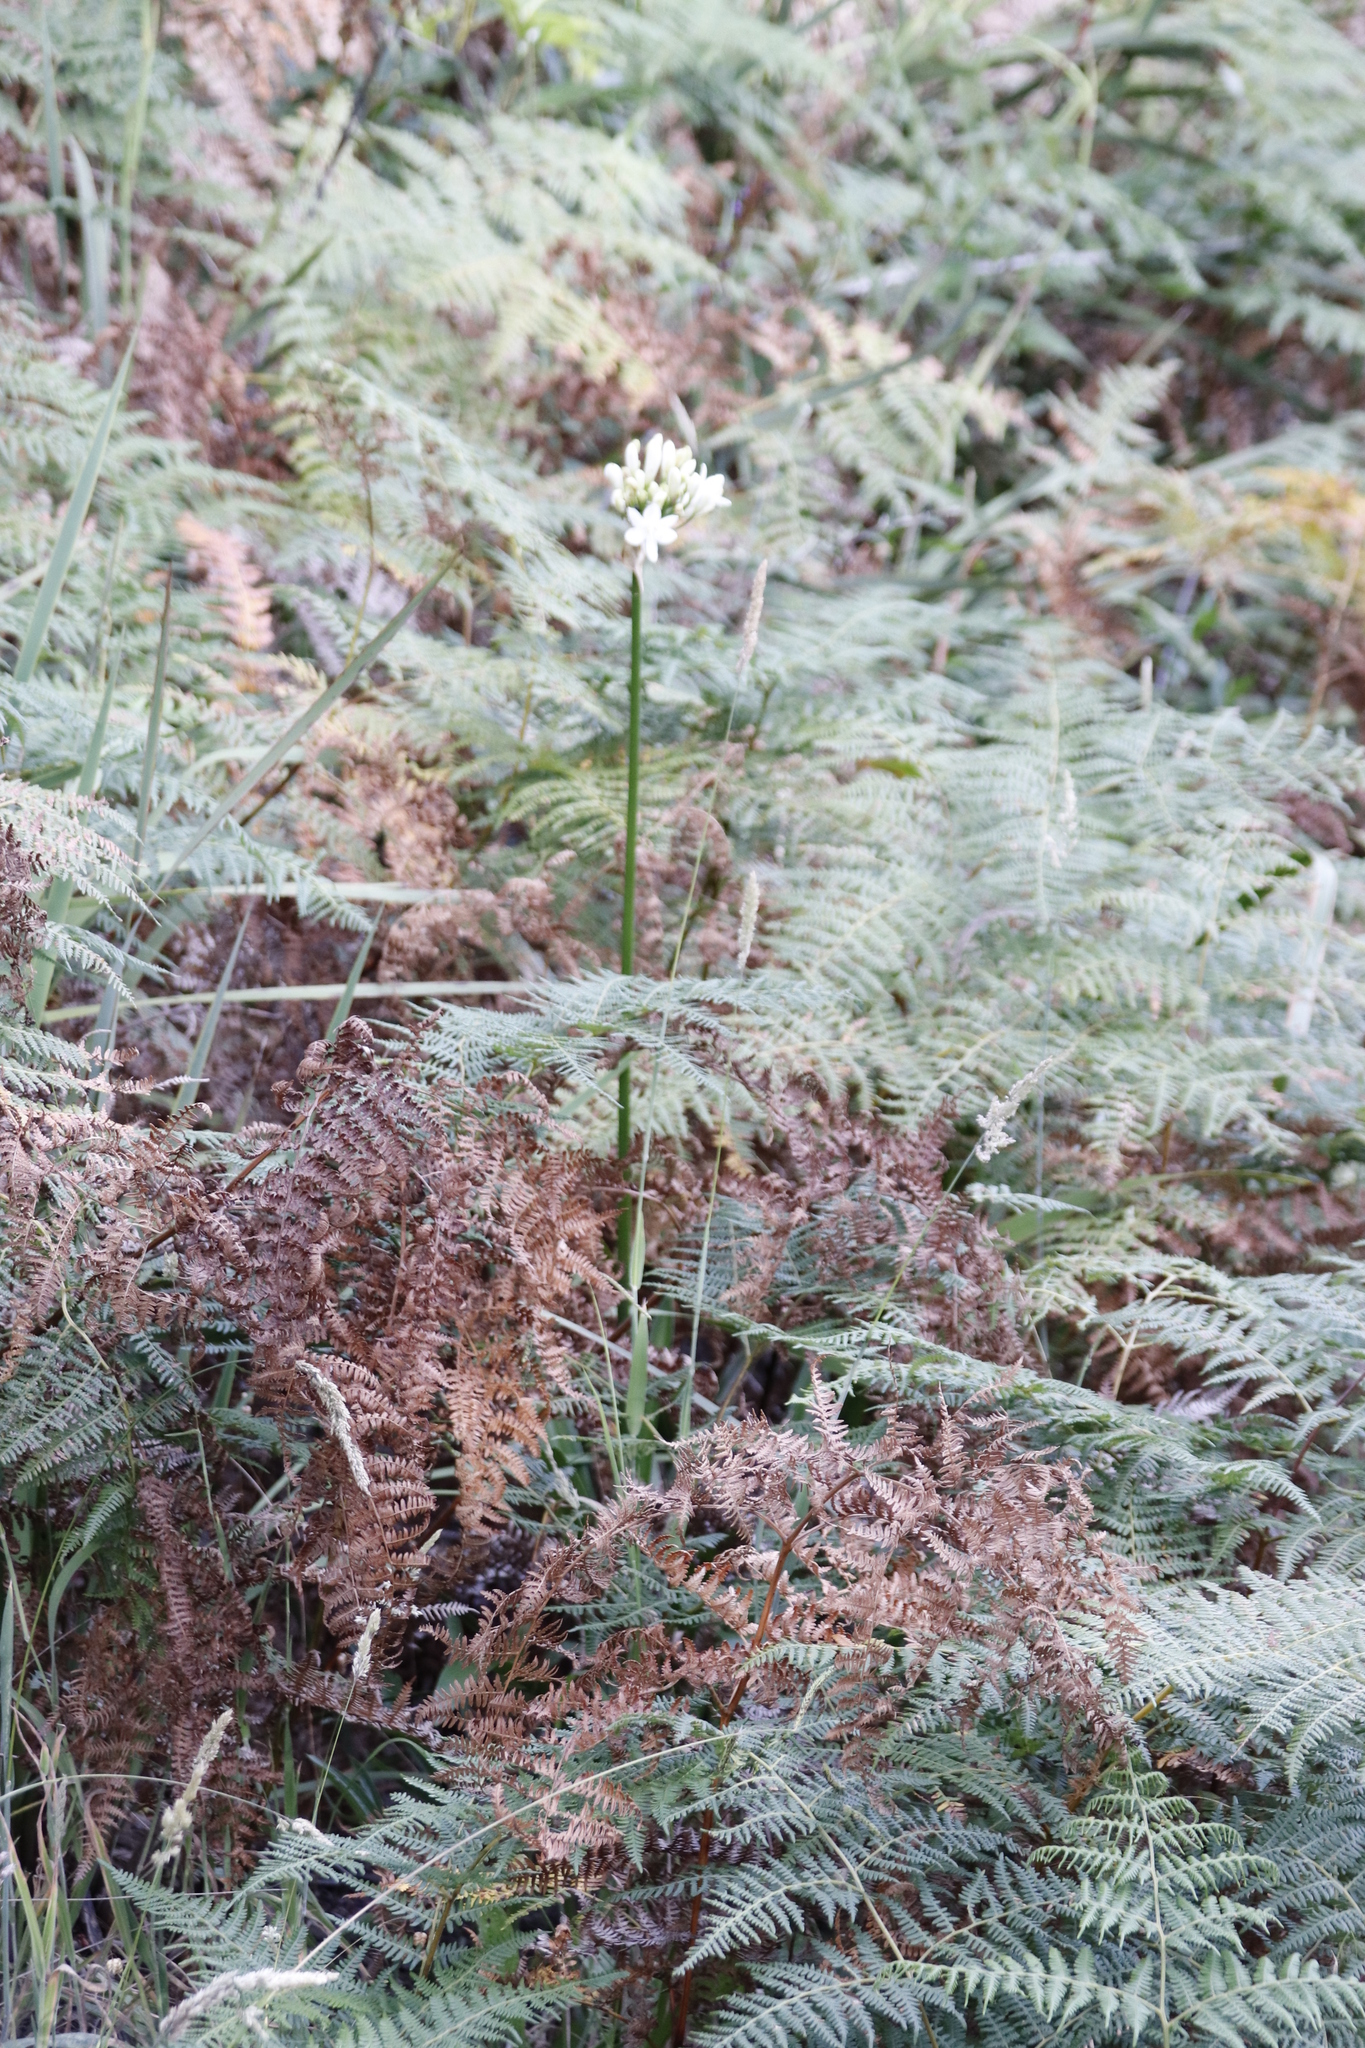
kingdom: Plantae
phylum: Tracheophyta
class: Polypodiopsida
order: Polypodiales
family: Dennstaedtiaceae
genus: Pteridium
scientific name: Pteridium aquilinum
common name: Bracken
